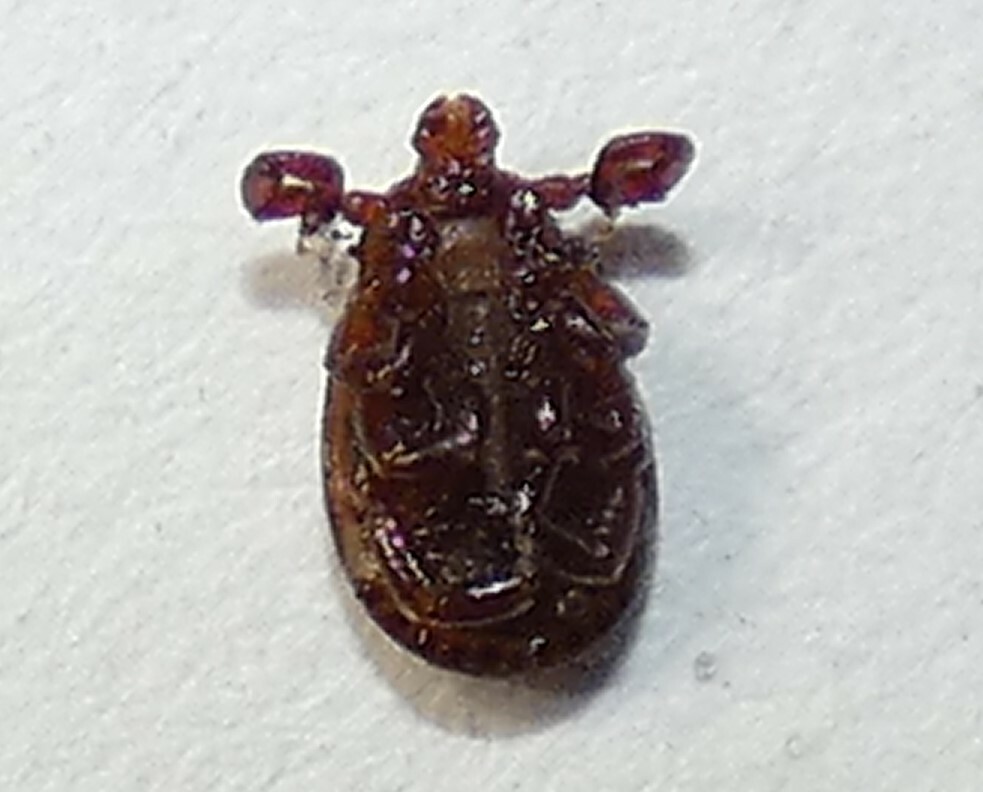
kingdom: Animalia
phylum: Arthropoda
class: Arachnida
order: Ixodida
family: Ixodidae
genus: Dermacentor
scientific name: Dermacentor variabilis
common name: American dog tick
